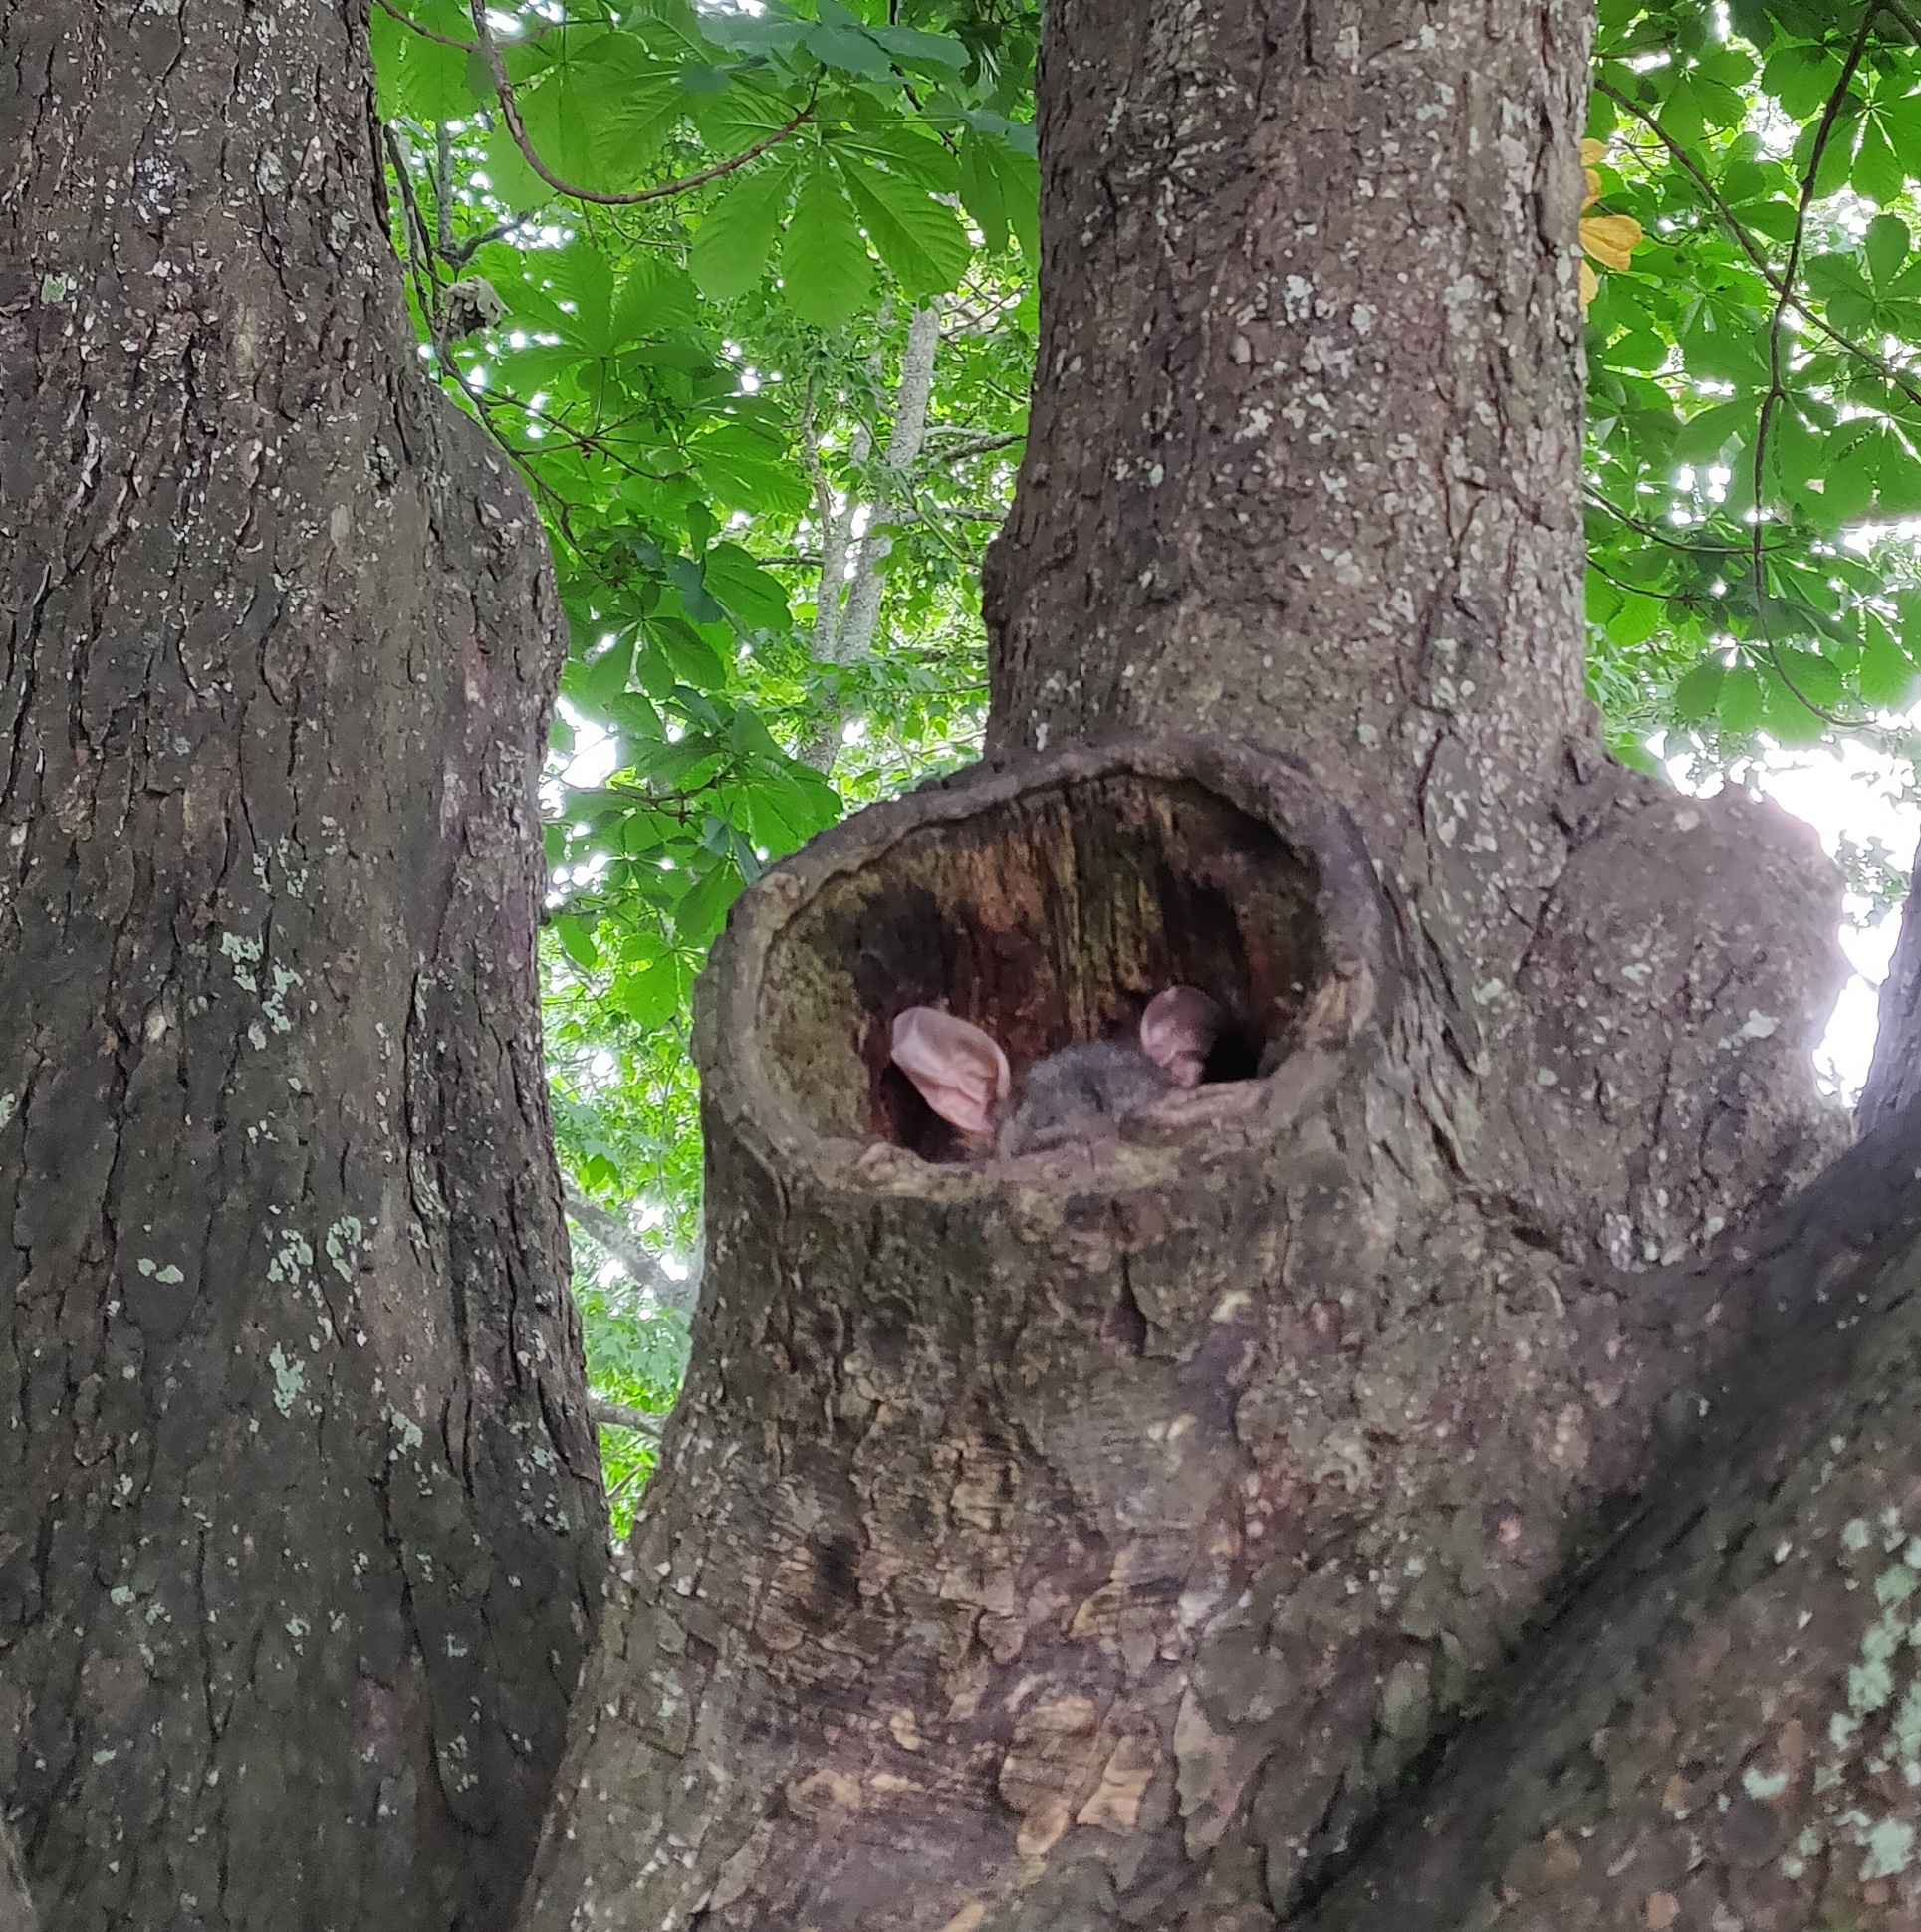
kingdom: Animalia
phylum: Chordata
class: Mammalia
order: Diprotodontia
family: Phalangeridae
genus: Trichosurus
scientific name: Trichosurus vulpecula
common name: Common brushtail
